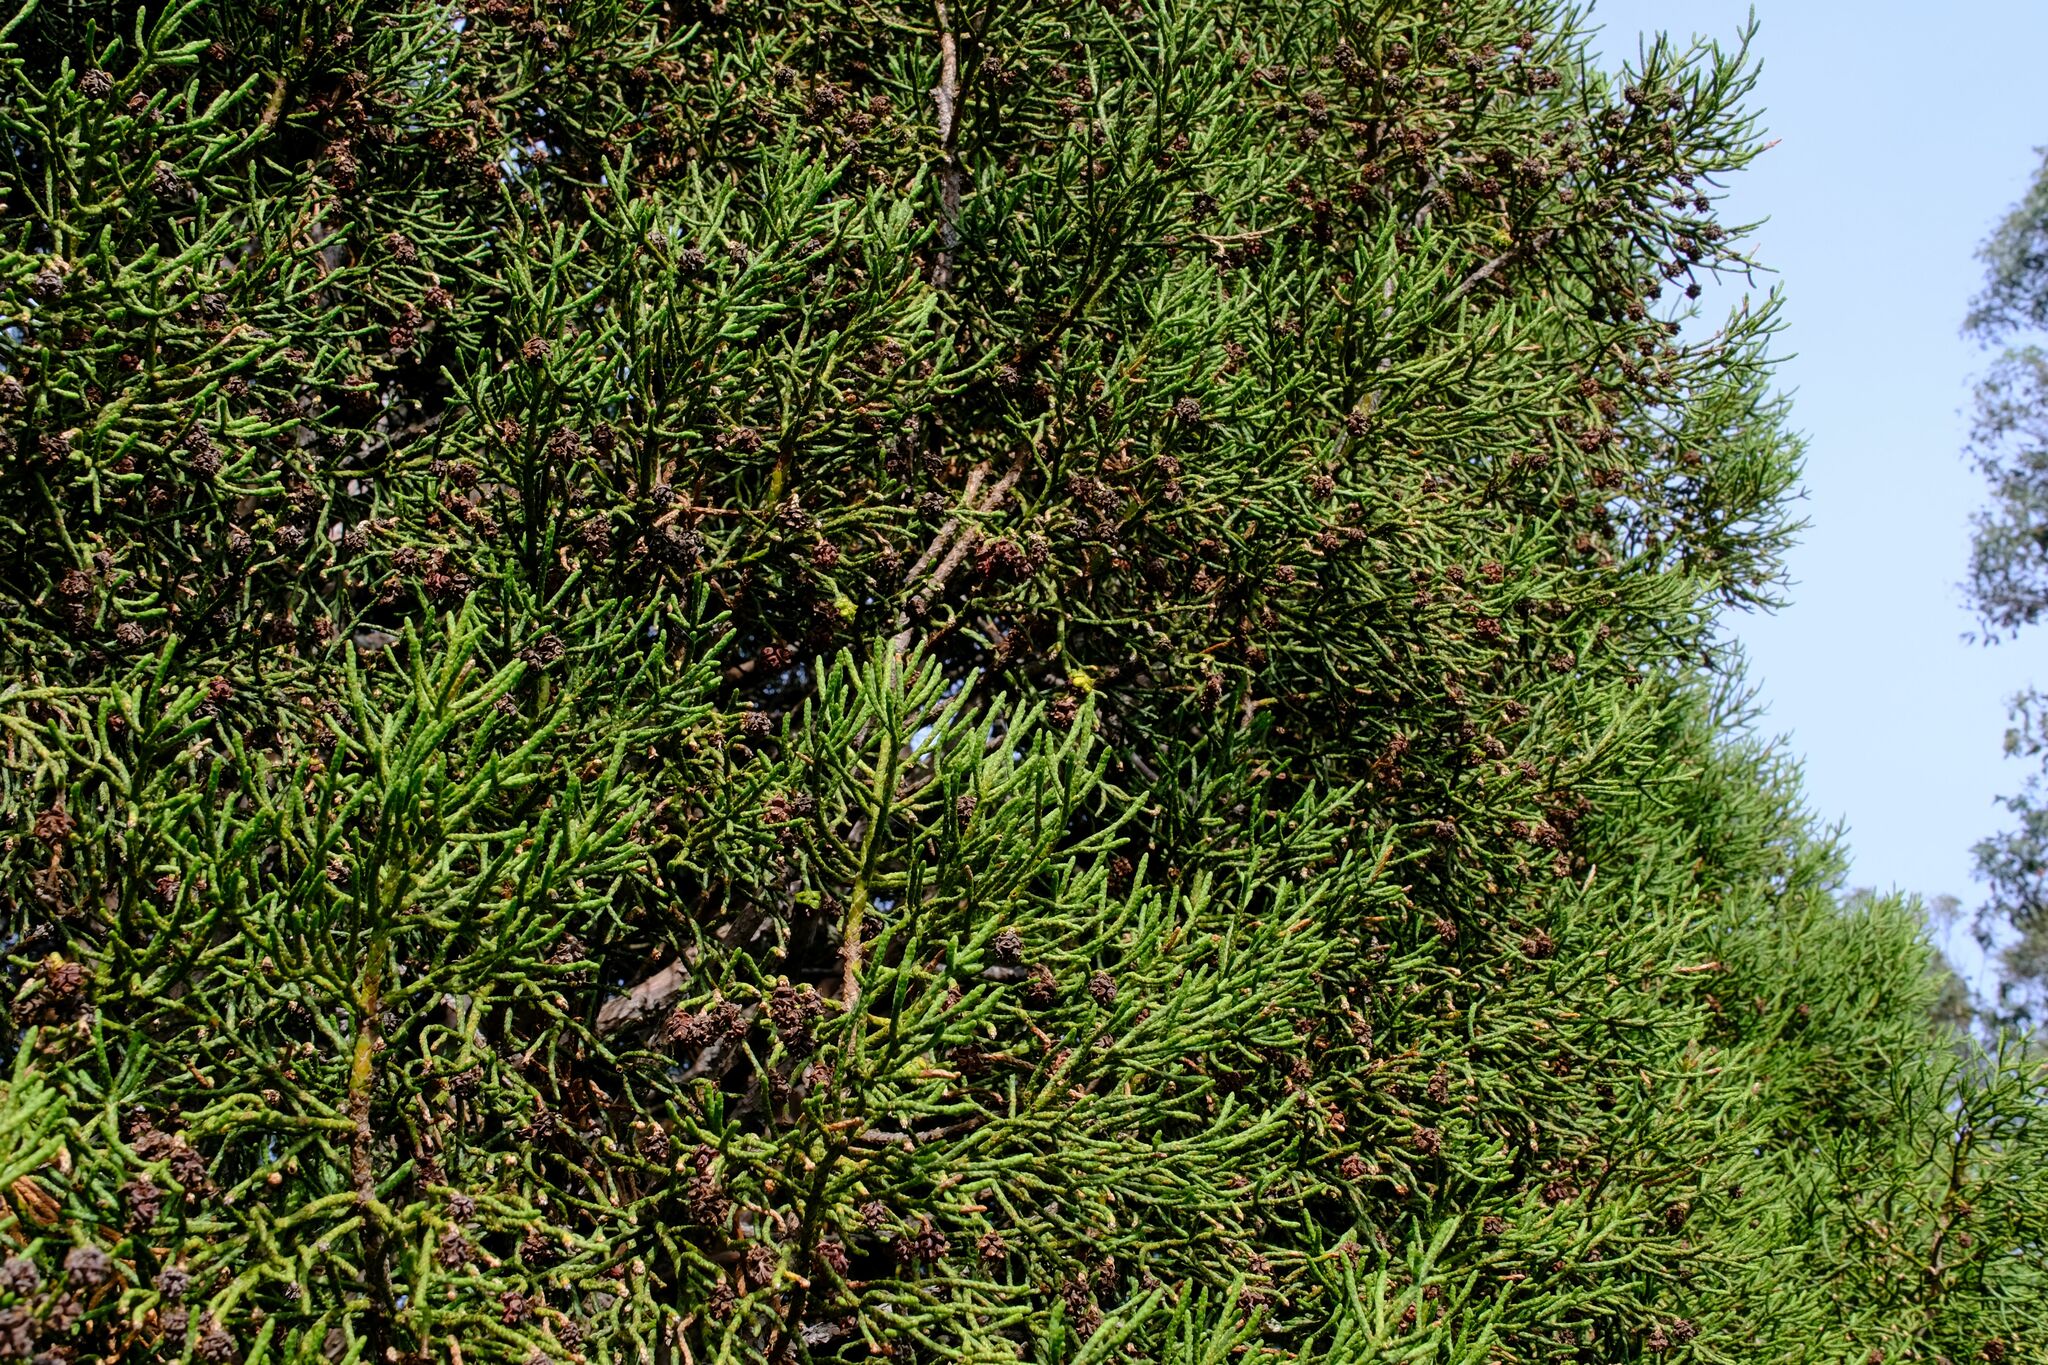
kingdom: Plantae
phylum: Tracheophyta
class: Pinopsida
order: Pinales
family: Cupressaceae
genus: Athrotaxis
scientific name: Athrotaxis cupressoides
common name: Tasmanian pencil pine
